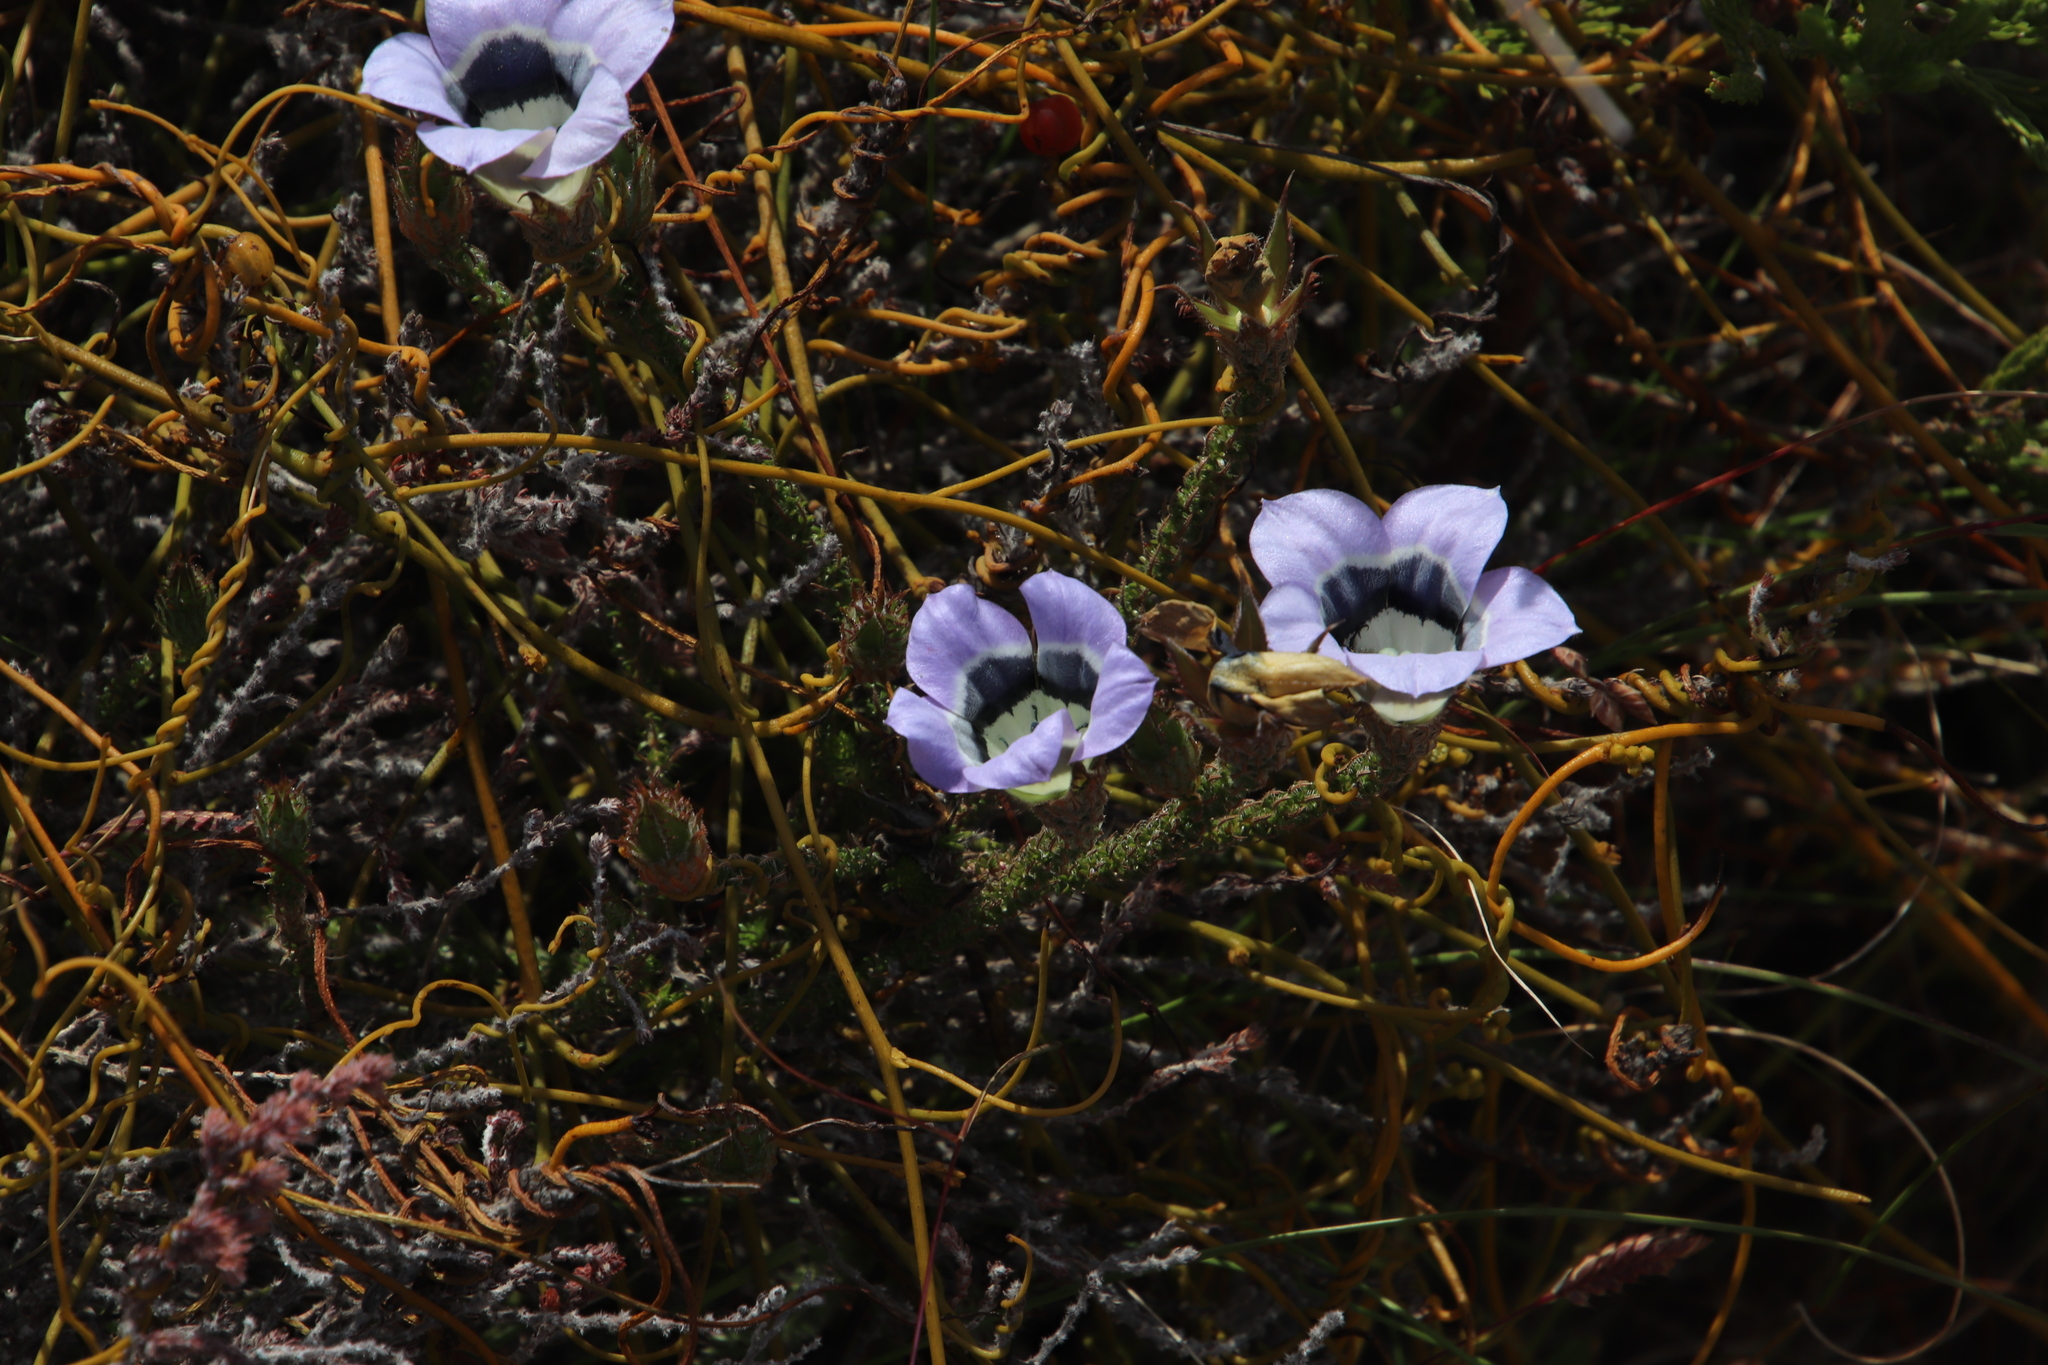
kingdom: Plantae
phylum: Tracheophyta
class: Magnoliopsida
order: Asterales
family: Campanulaceae
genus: Roella
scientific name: Roella ciliata
